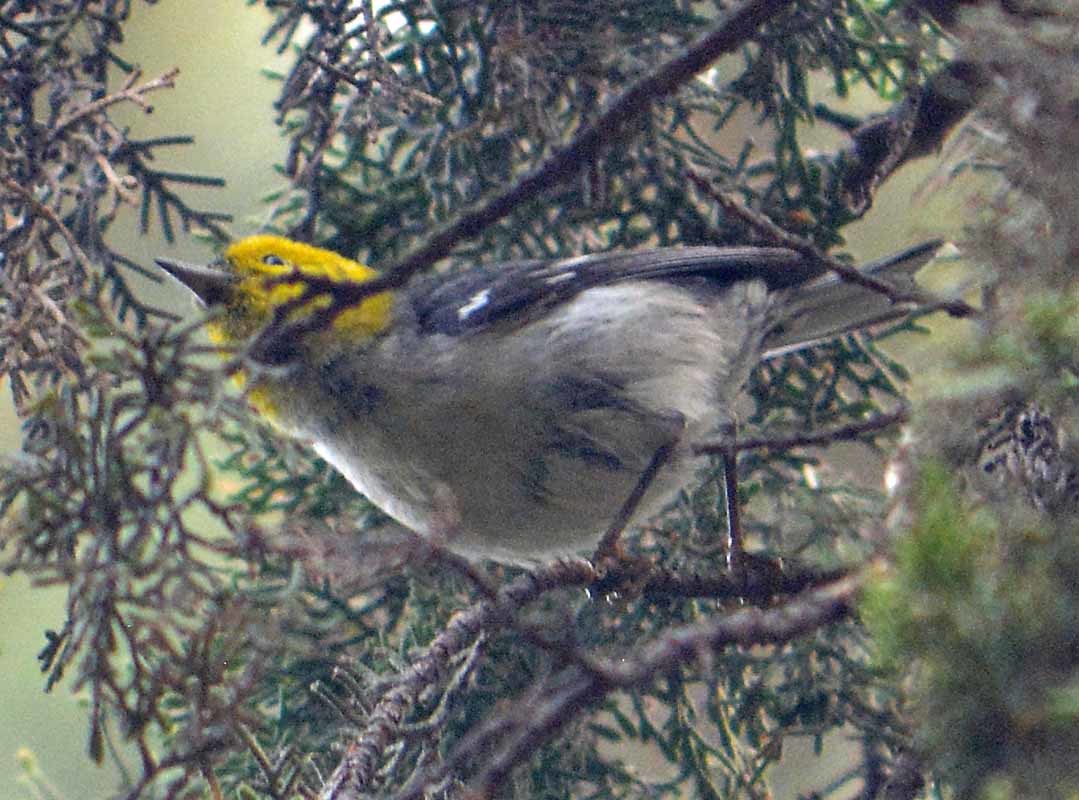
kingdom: Animalia
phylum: Chordata
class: Aves
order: Passeriformes
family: Parulidae
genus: Setophaga
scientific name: Setophaga occidentalis
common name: Hermit warbler
